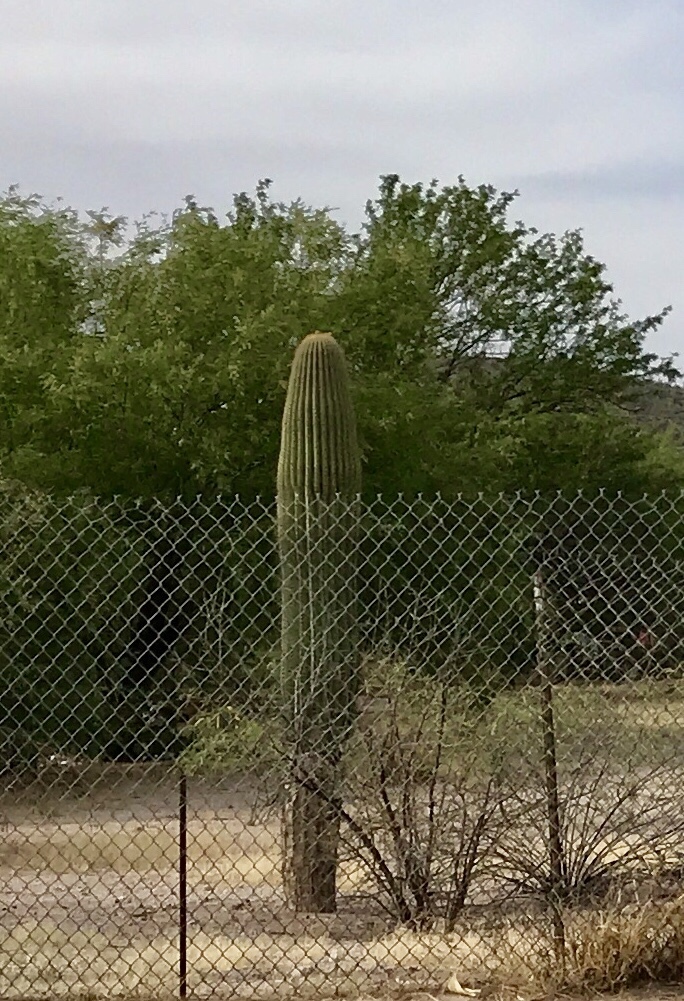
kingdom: Plantae
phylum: Tracheophyta
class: Magnoliopsida
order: Caryophyllales
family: Cactaceae
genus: Carnegiea
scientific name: Carnegiea gigantea
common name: Saguaro
